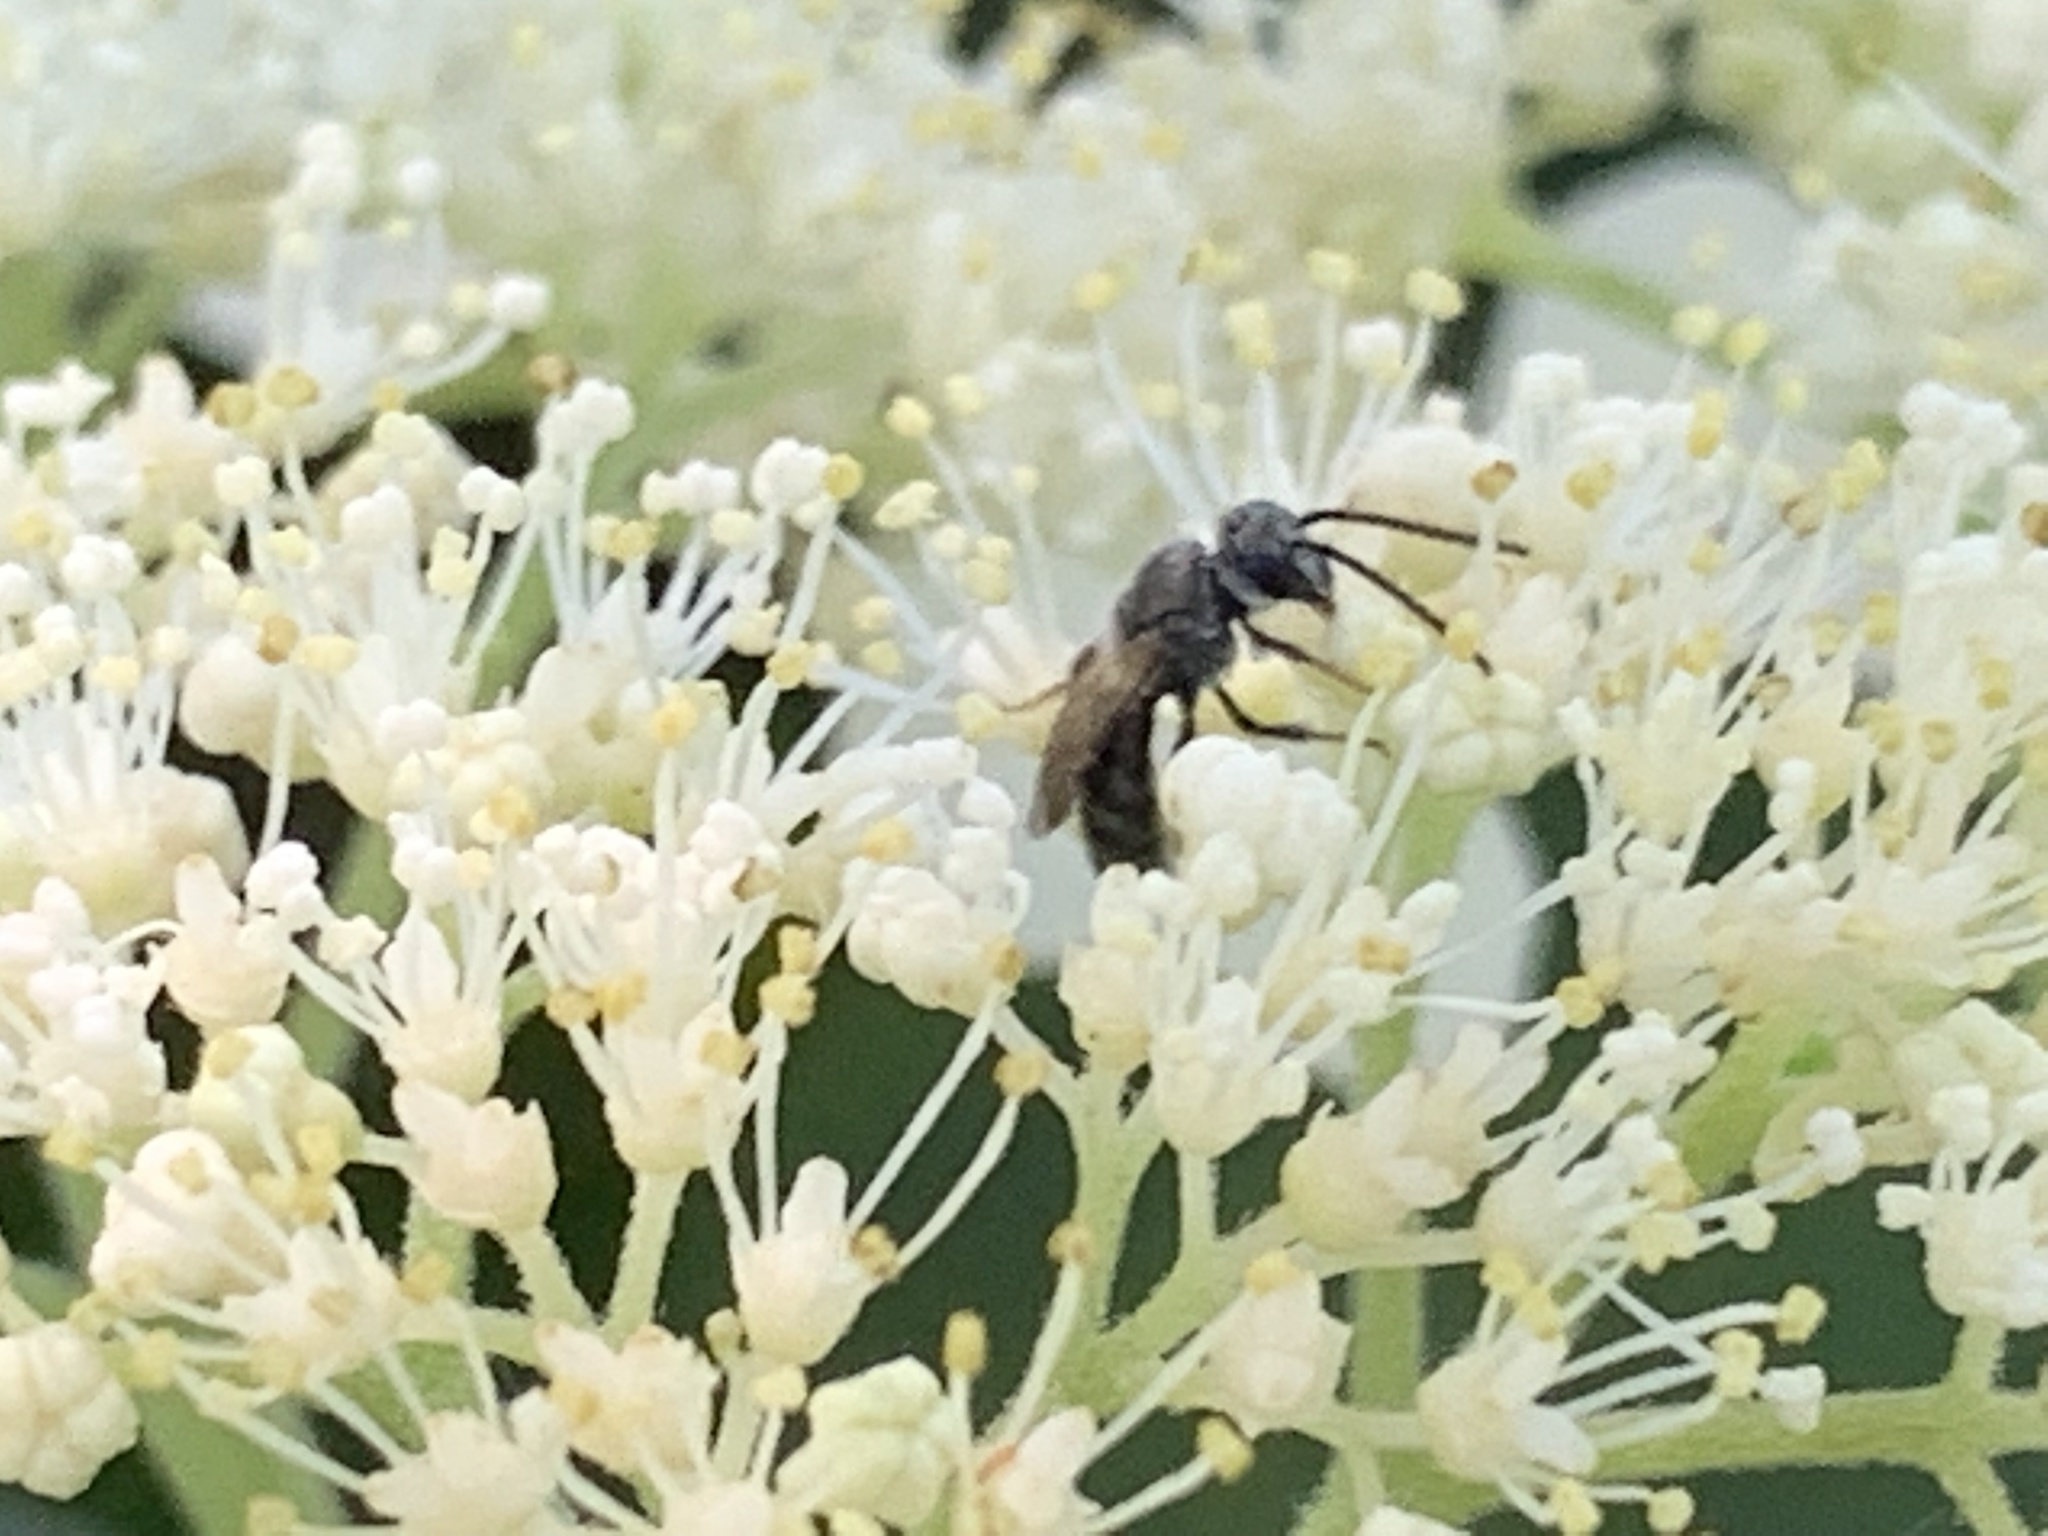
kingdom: Animalia
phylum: Arthropoda
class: Insecta
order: Hymenoptera
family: Halictidae
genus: Lasioglossum
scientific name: Lasioglossum
